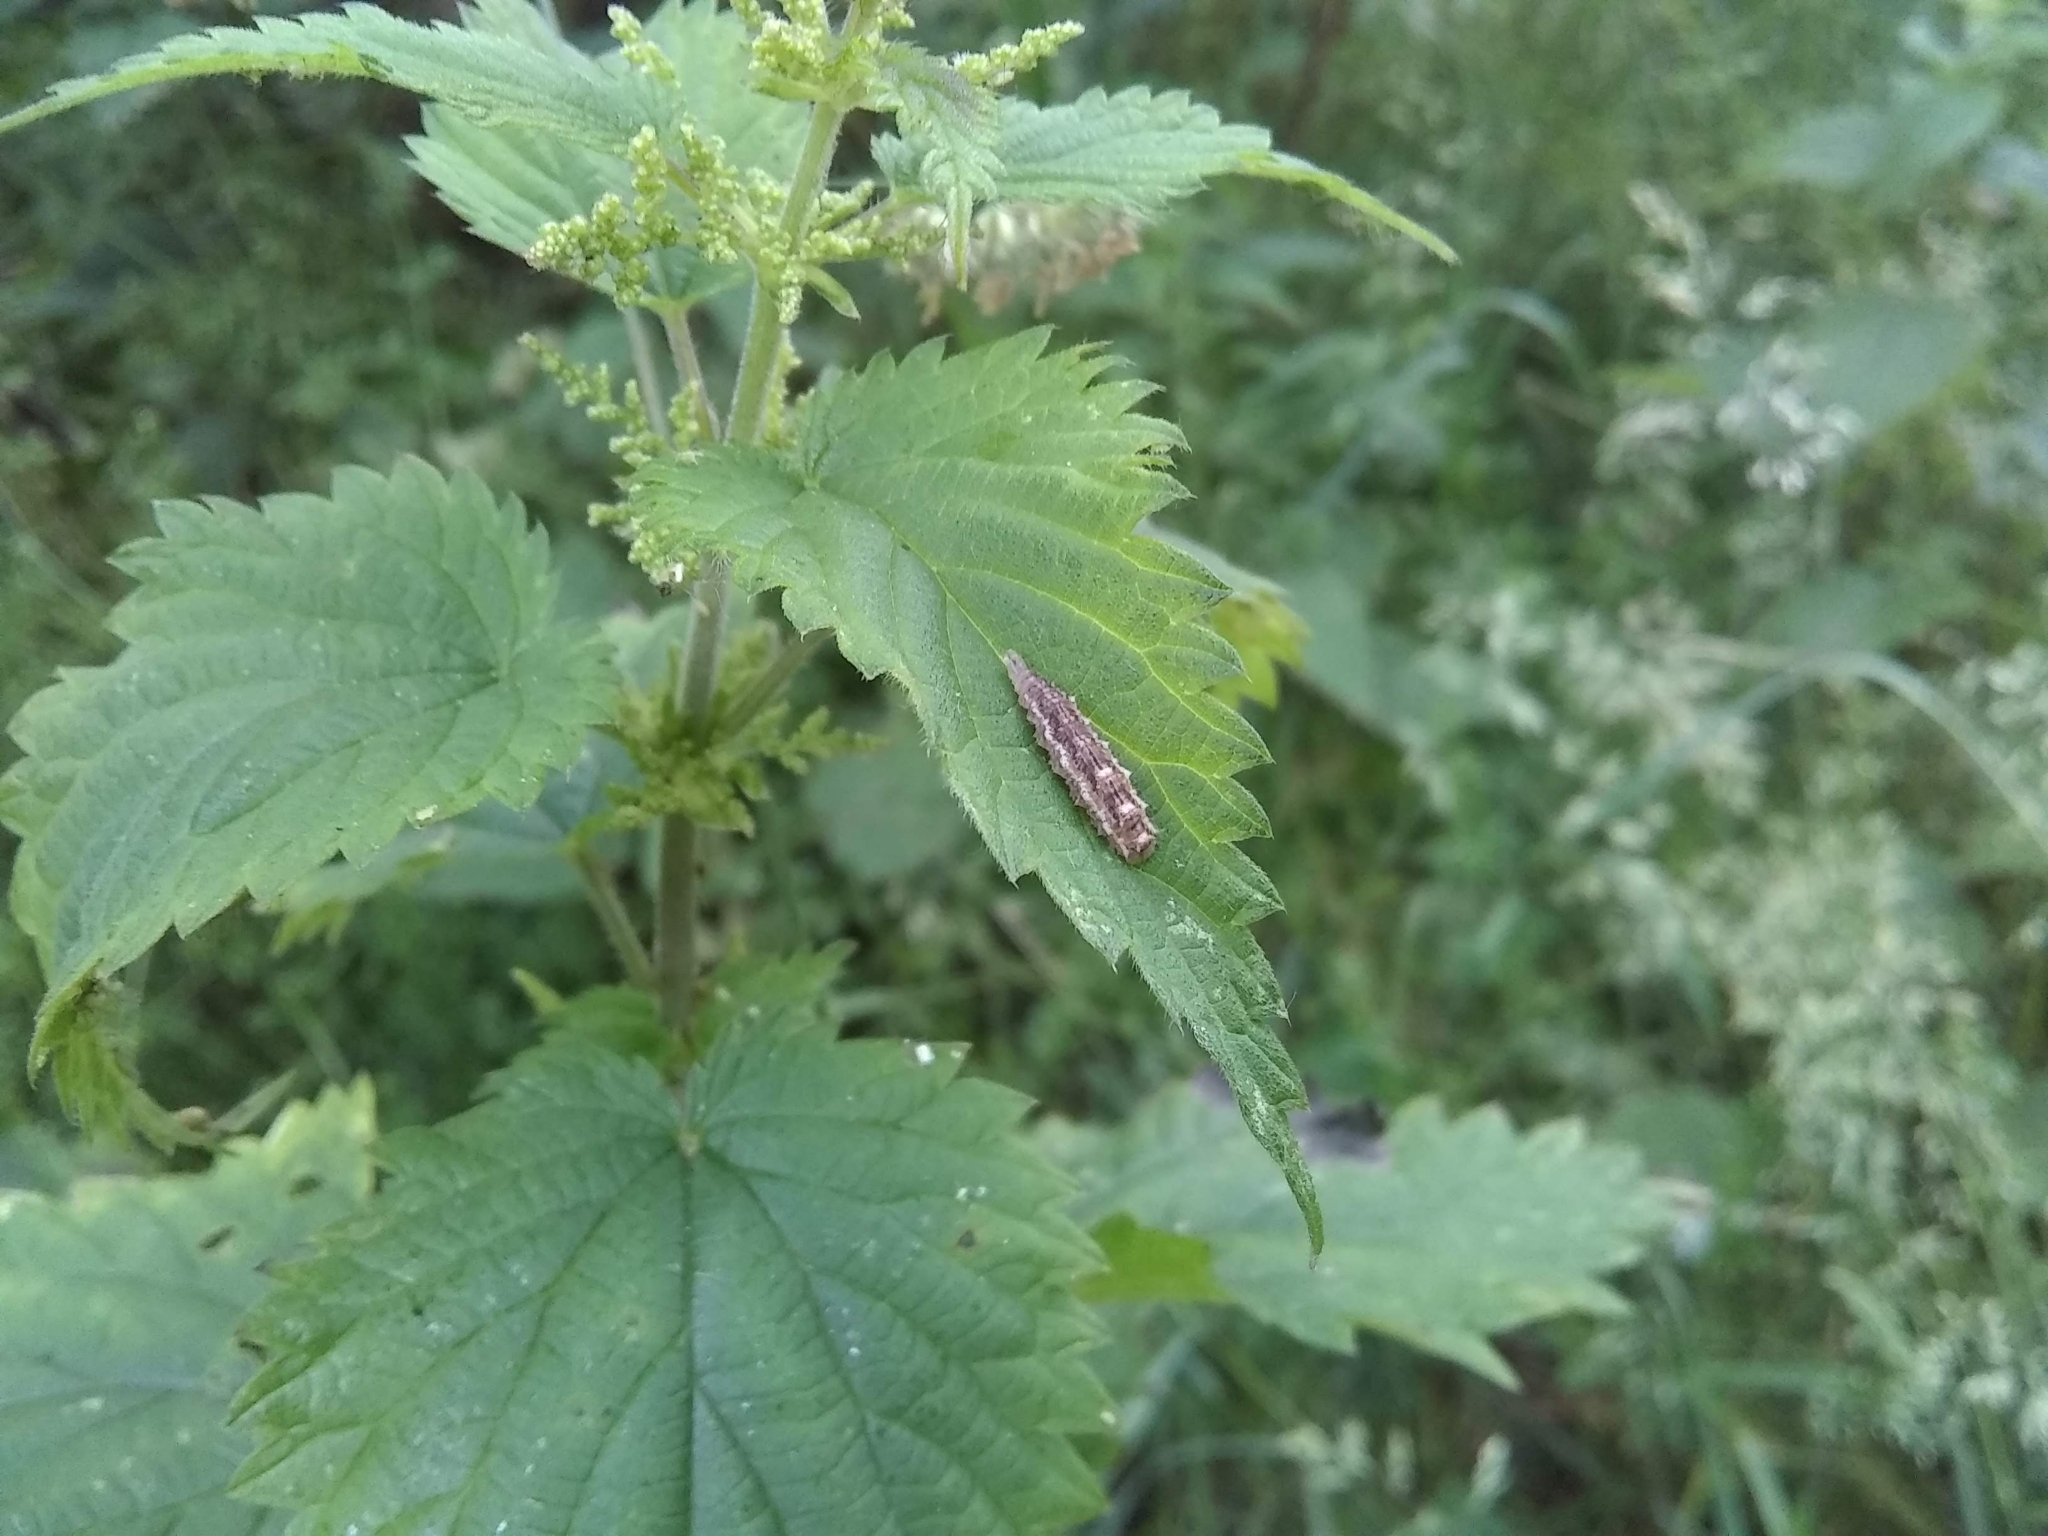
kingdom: Animalia
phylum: Arthropoda
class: Insecta
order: Diptera
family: Syrphidae
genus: Eupeodes
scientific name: Eupeodes
